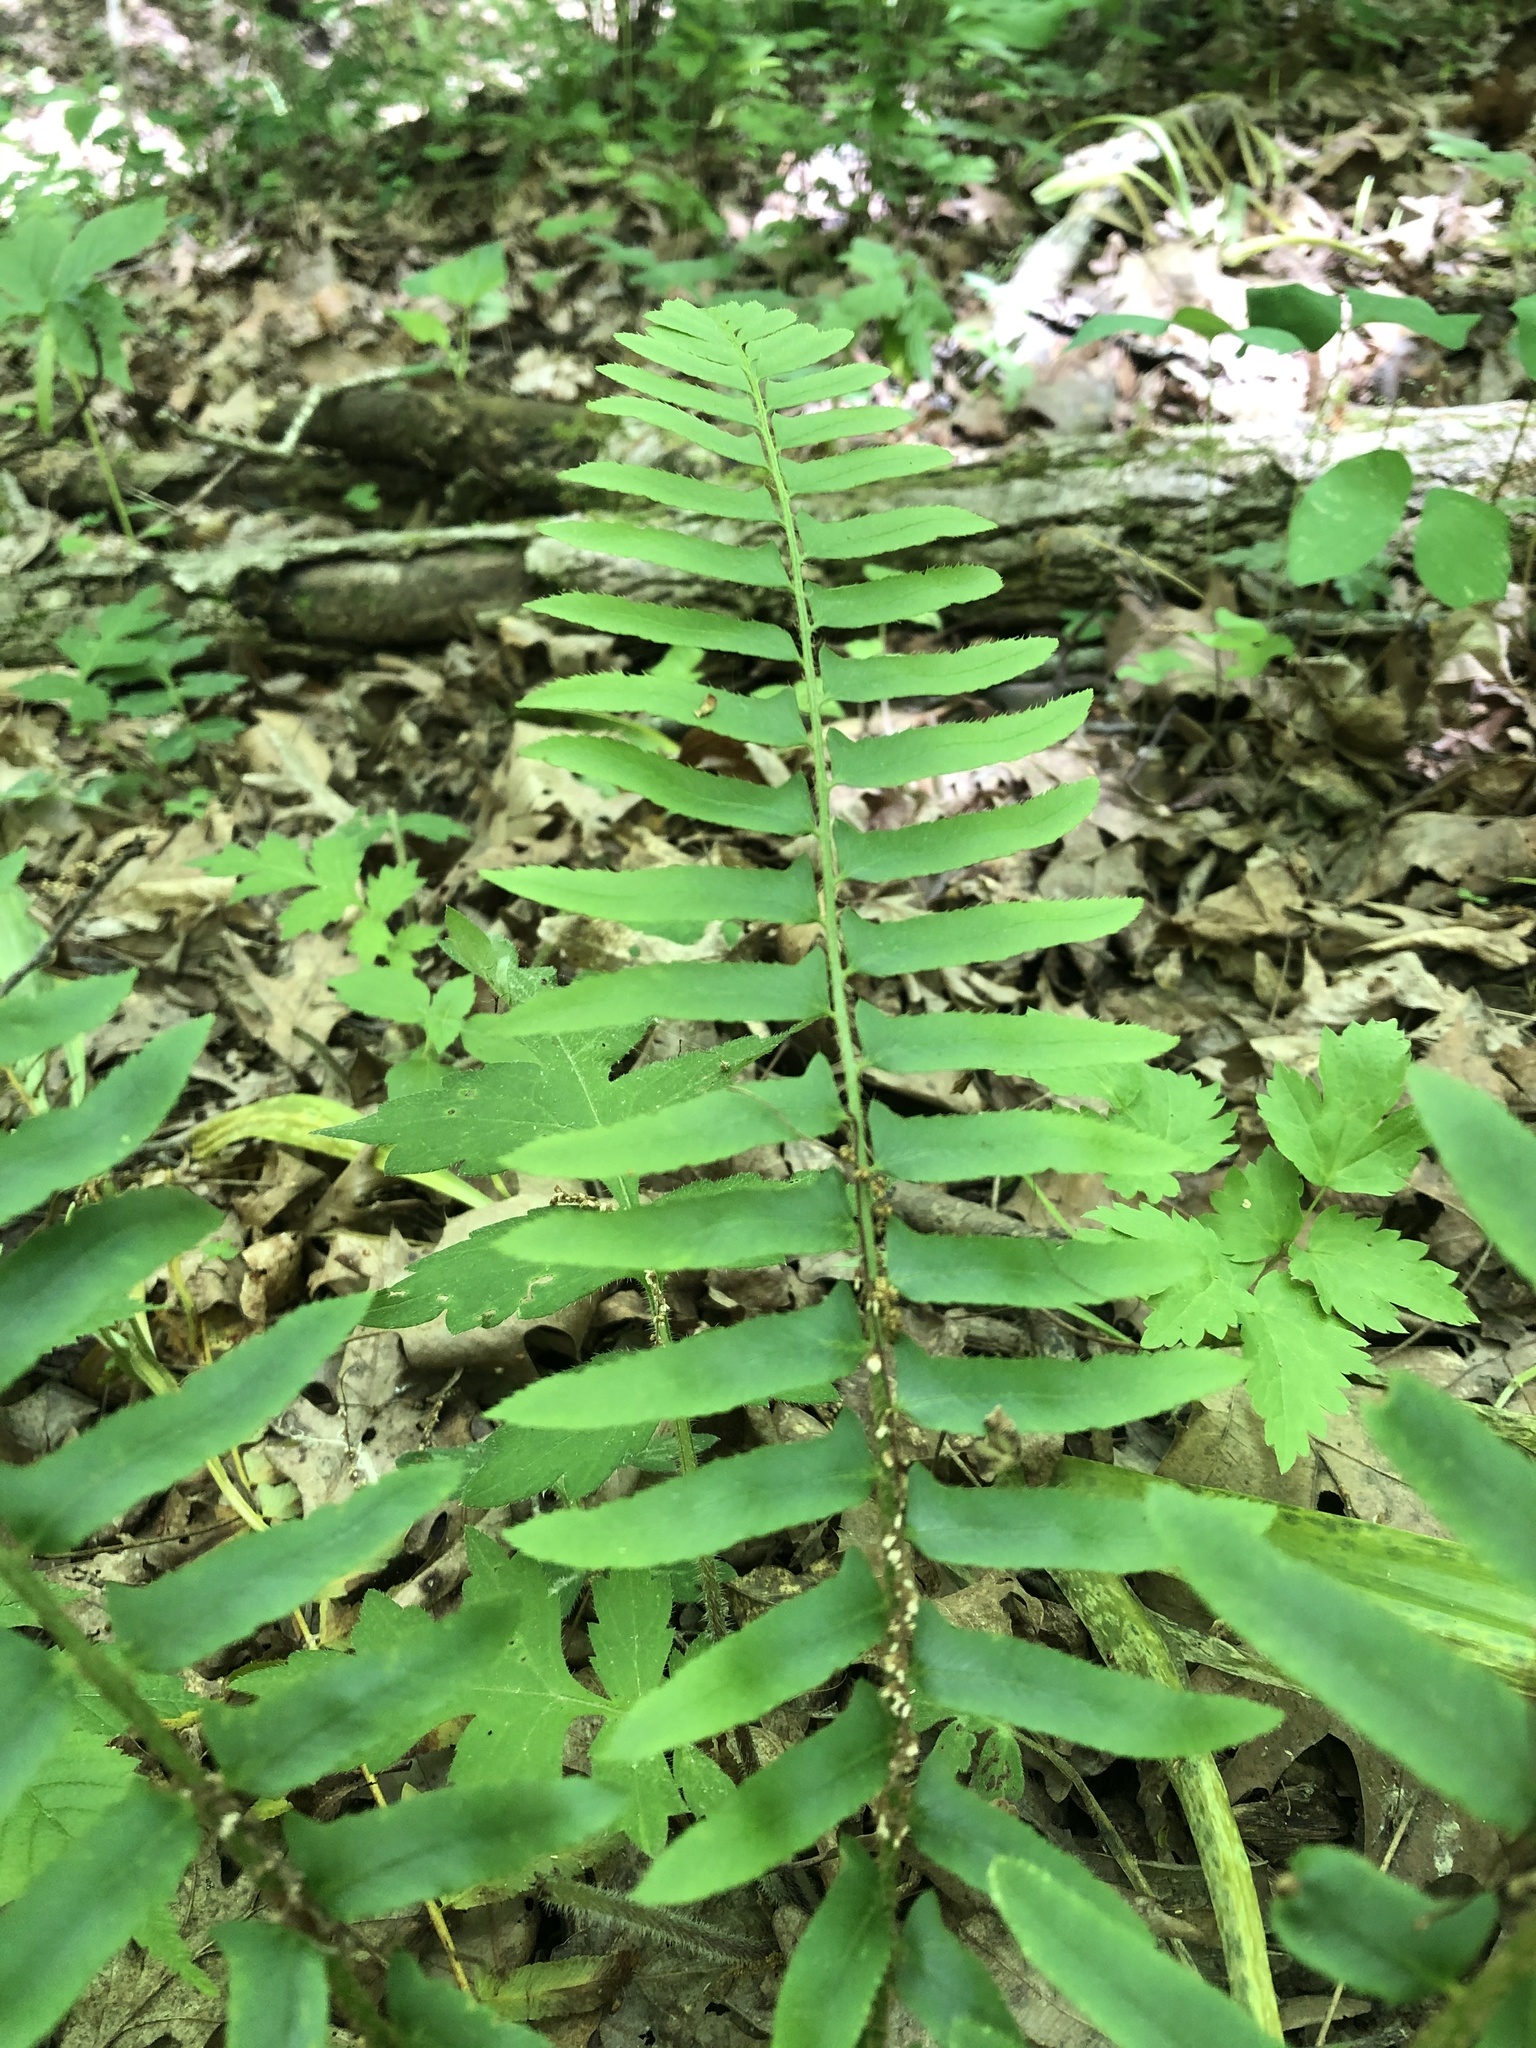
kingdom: Plantae
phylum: Tracheophyta
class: Polypodiopsida
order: Polypodiales
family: Dryopteridaceae
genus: Polystichum
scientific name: Polystichum acrostichoides
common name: Christmas fern
